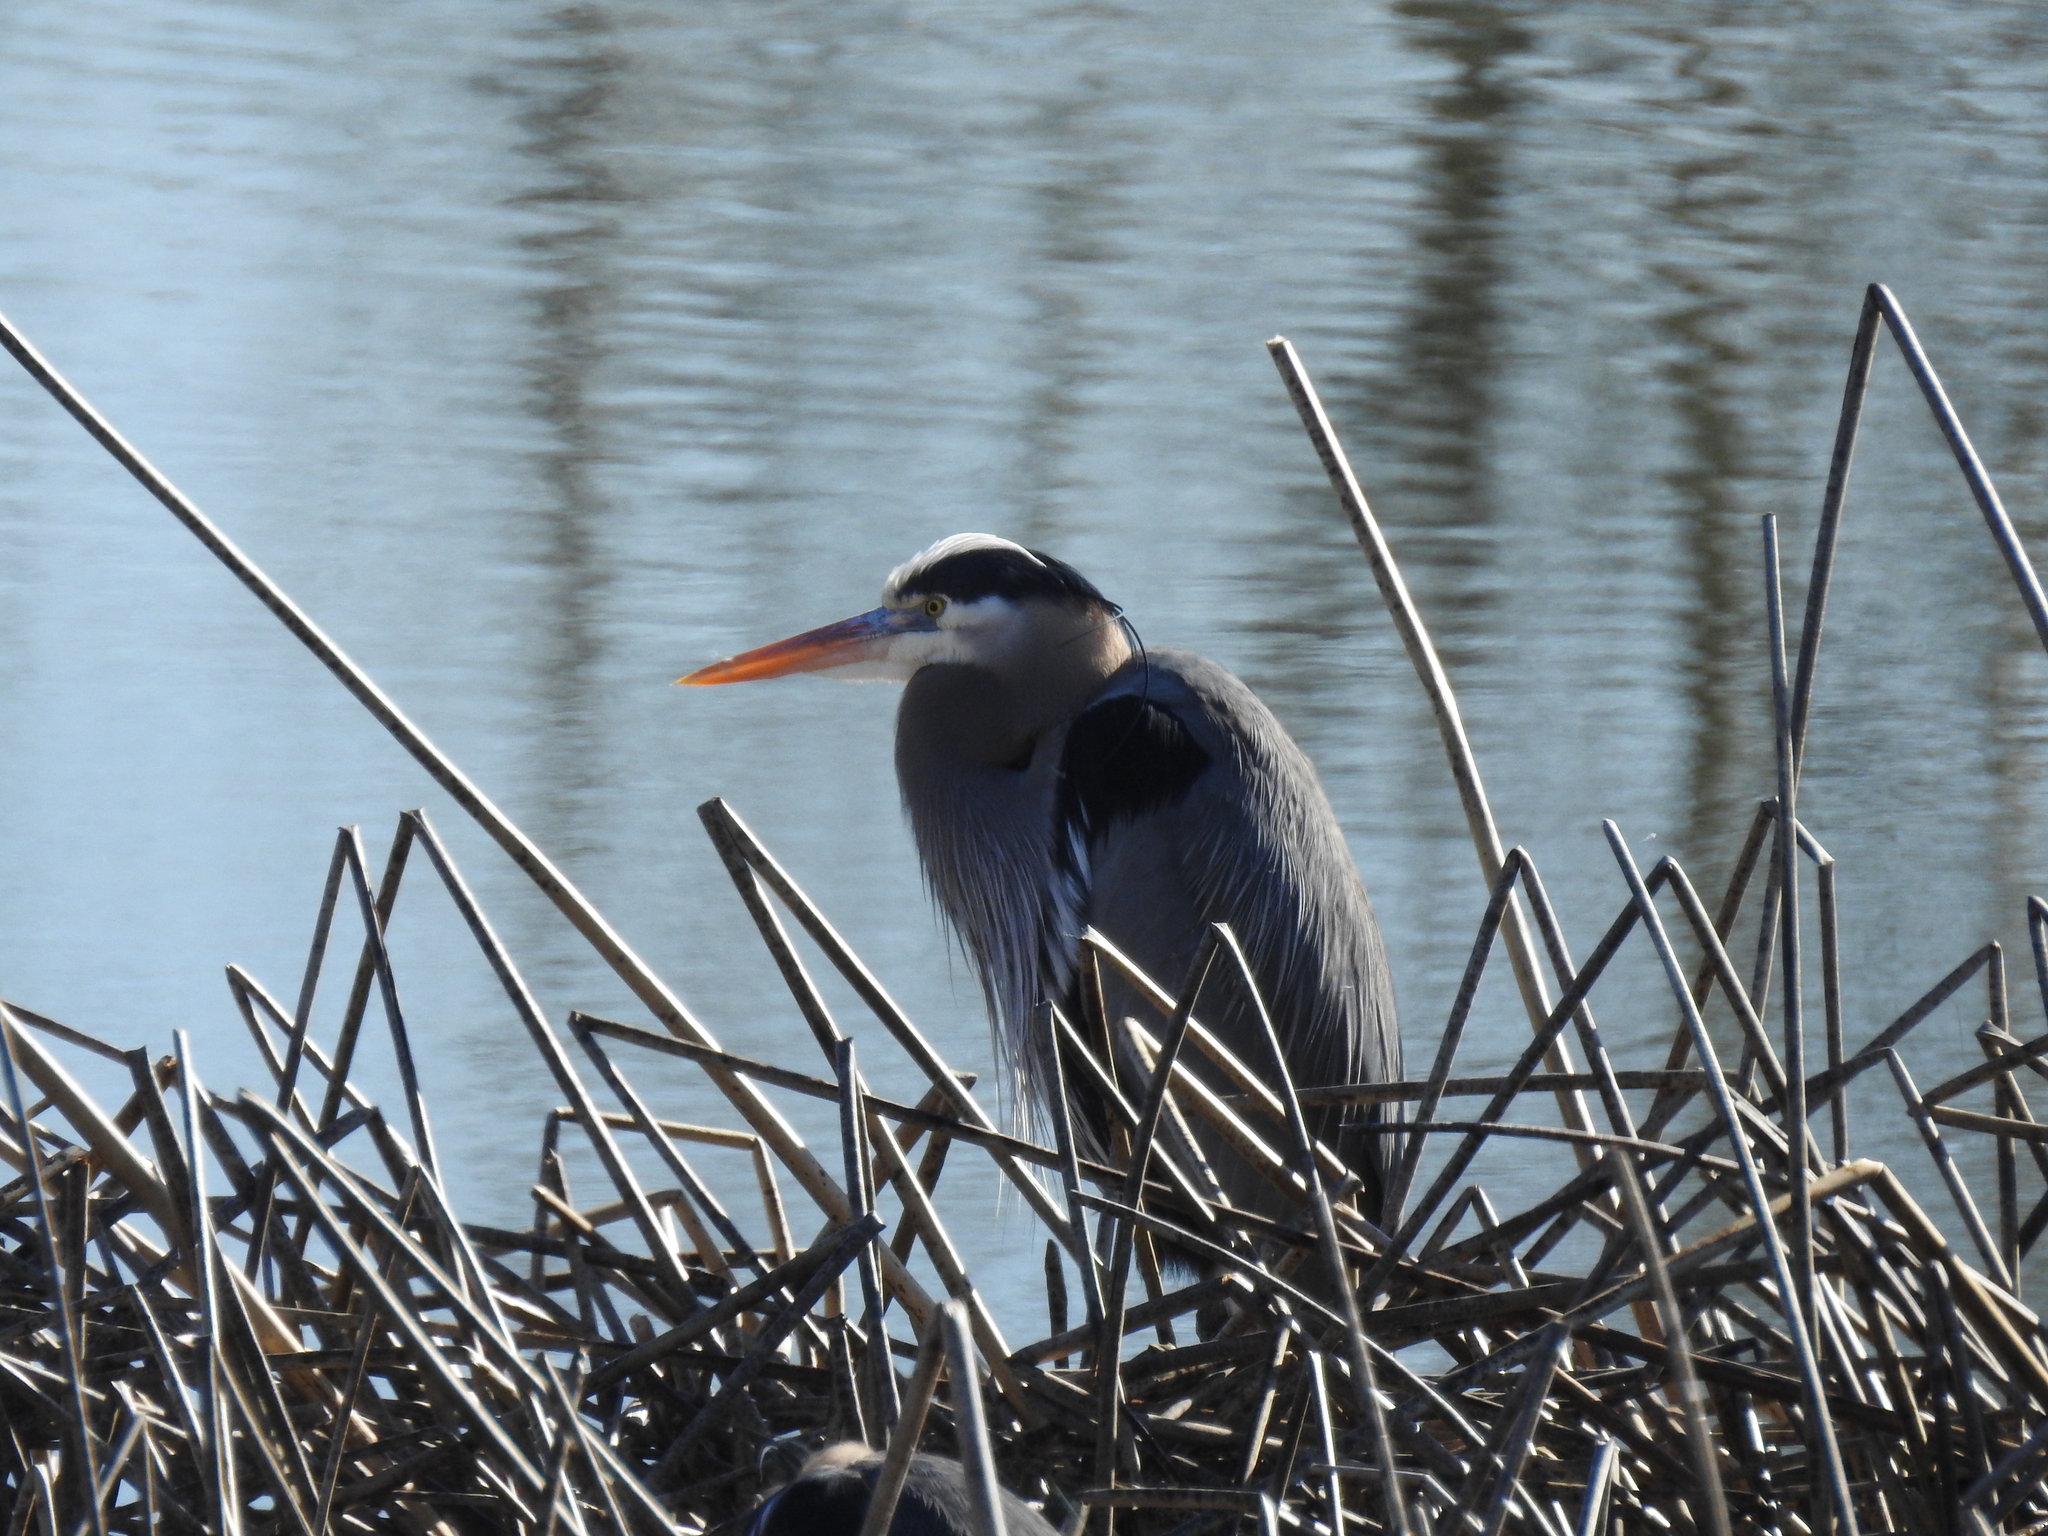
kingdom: Animalia
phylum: Chordata
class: Aves
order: Pelecaniformes
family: Ardeidae
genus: Ardea
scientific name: Ardea herodias
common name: Great blue heron
